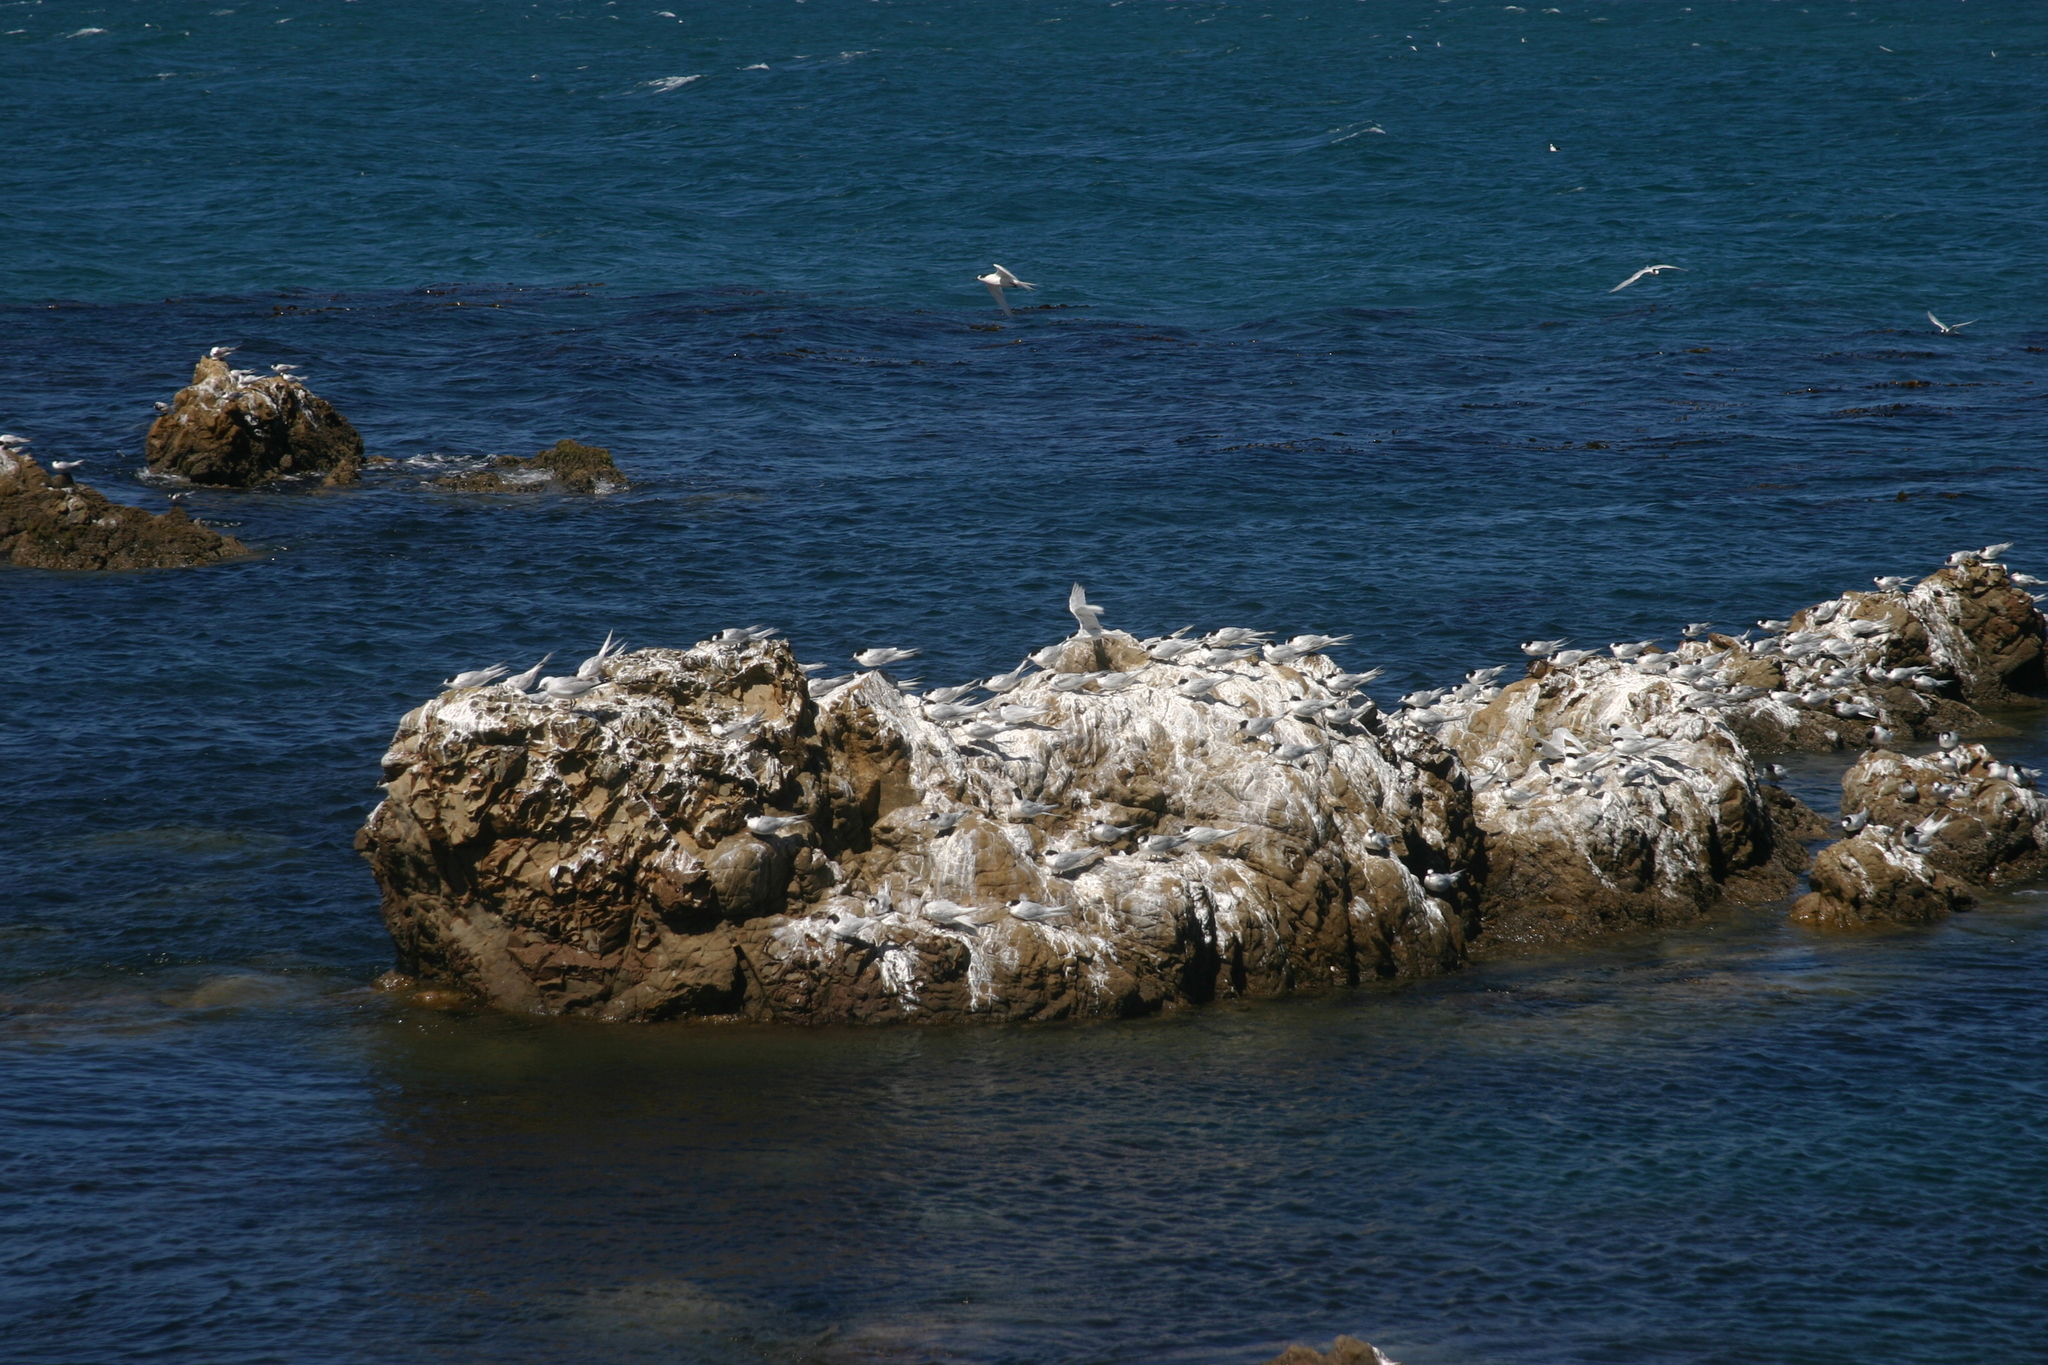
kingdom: Animalia
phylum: Chordata
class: Aves
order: Charadriiformes
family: Laridae
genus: Sterna
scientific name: Sterna striata
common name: White-fronted tern
